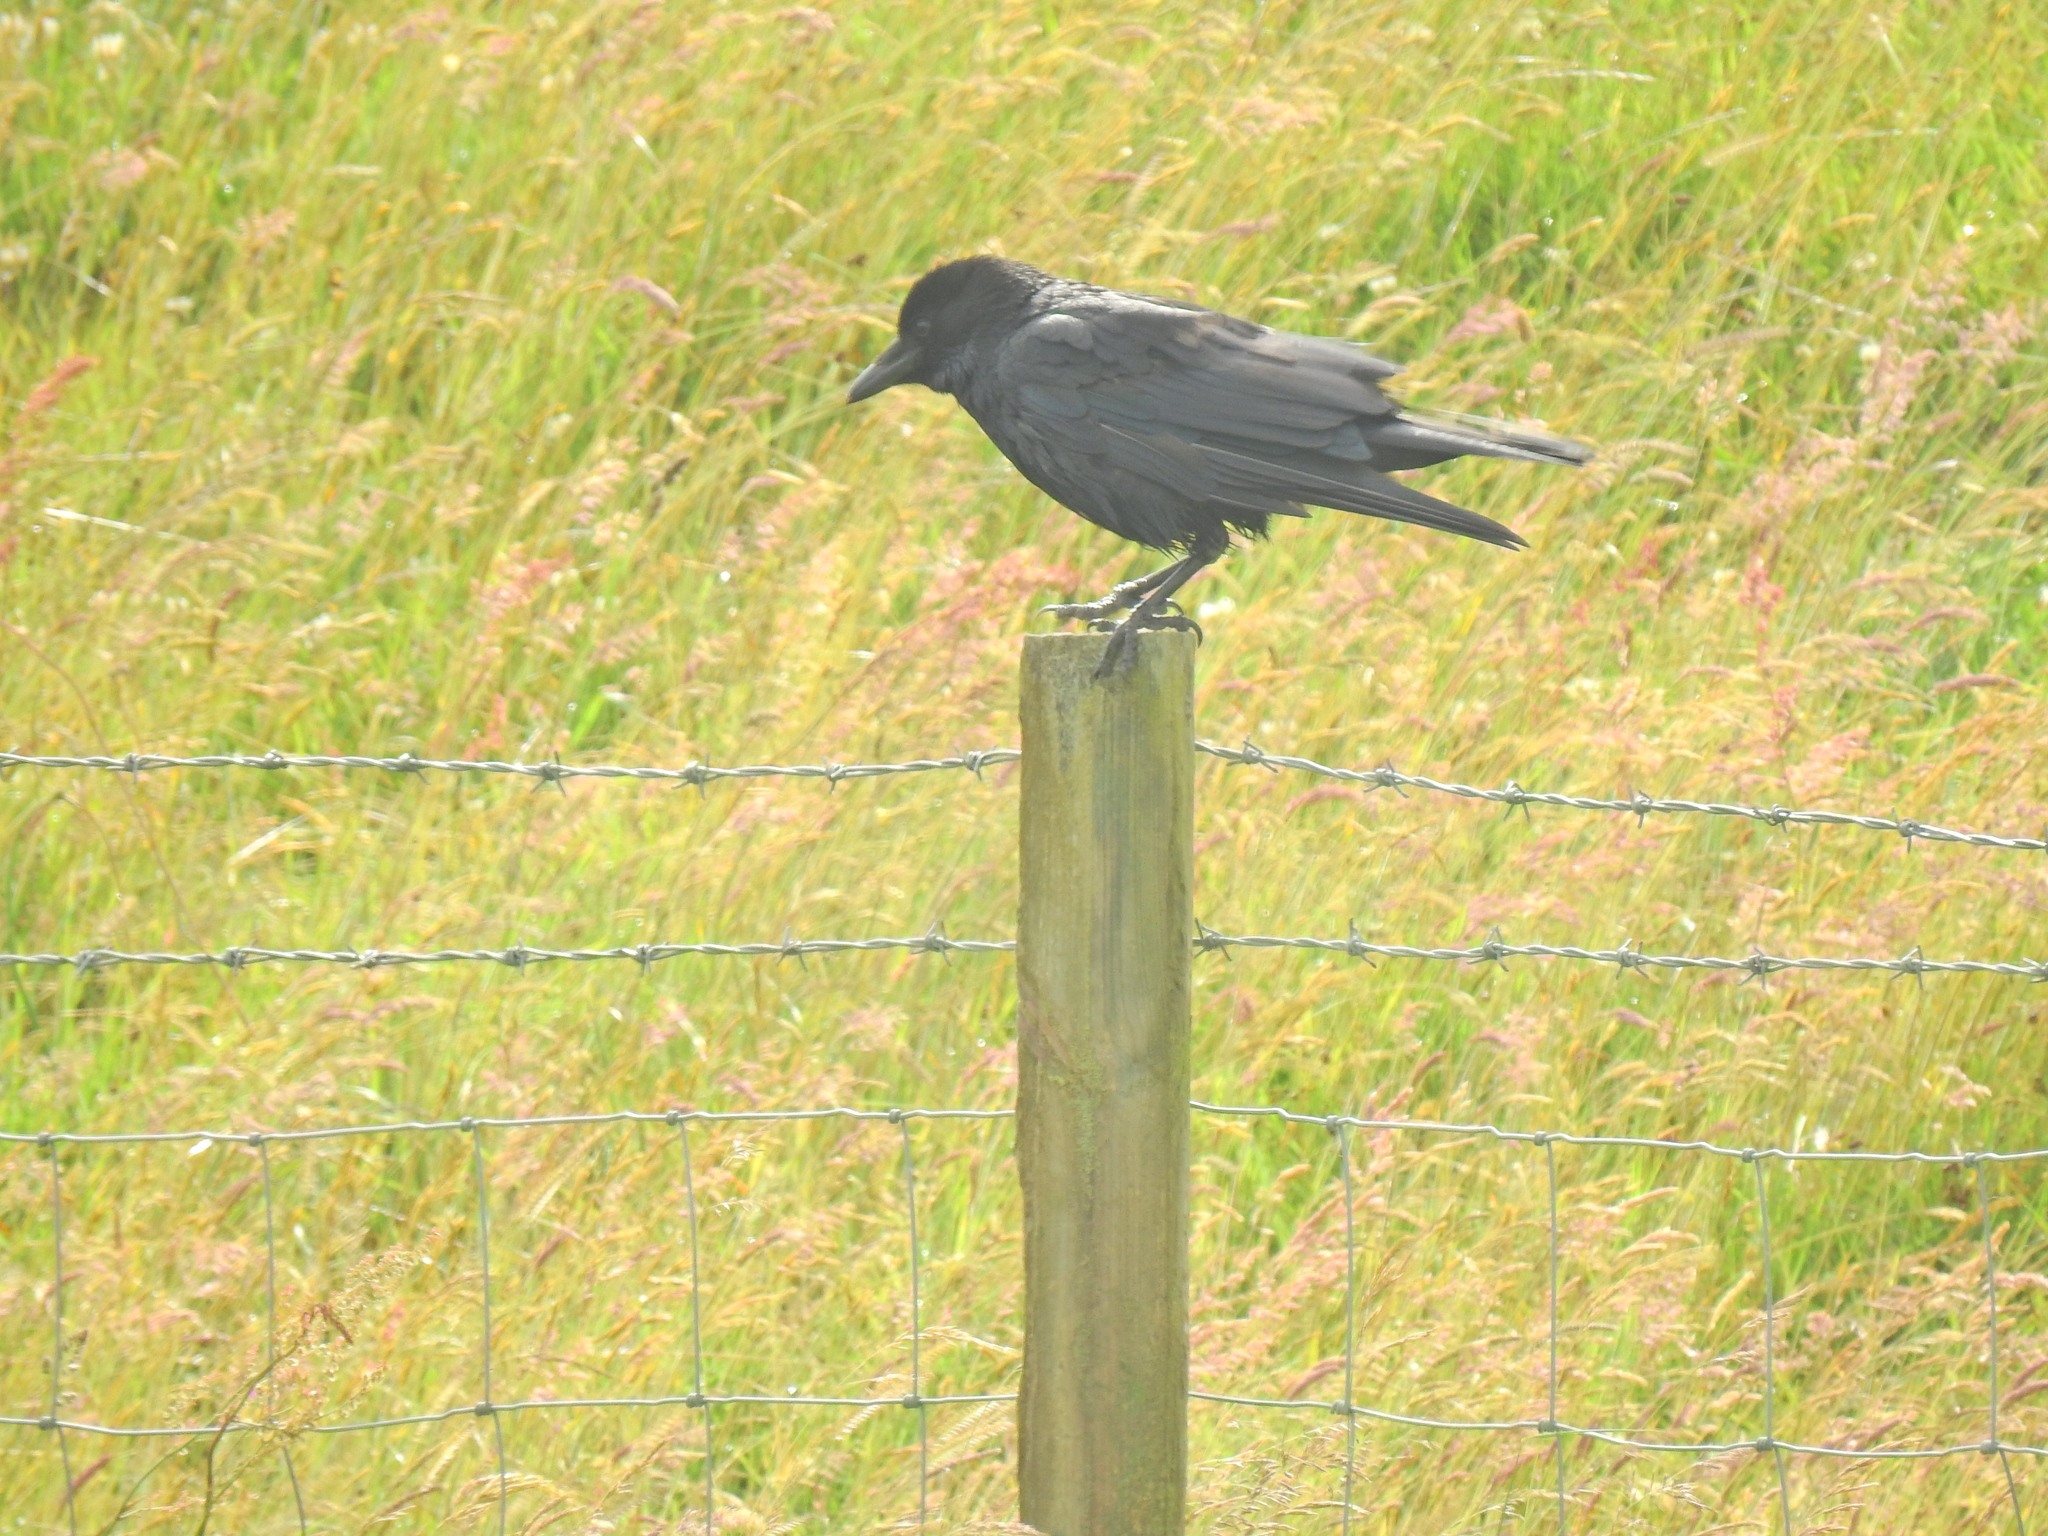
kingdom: Animalia
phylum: Chordata
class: Aves
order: Passeriformes
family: Corvidae
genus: Corvus
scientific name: Corvus corone
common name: Carrion crow
